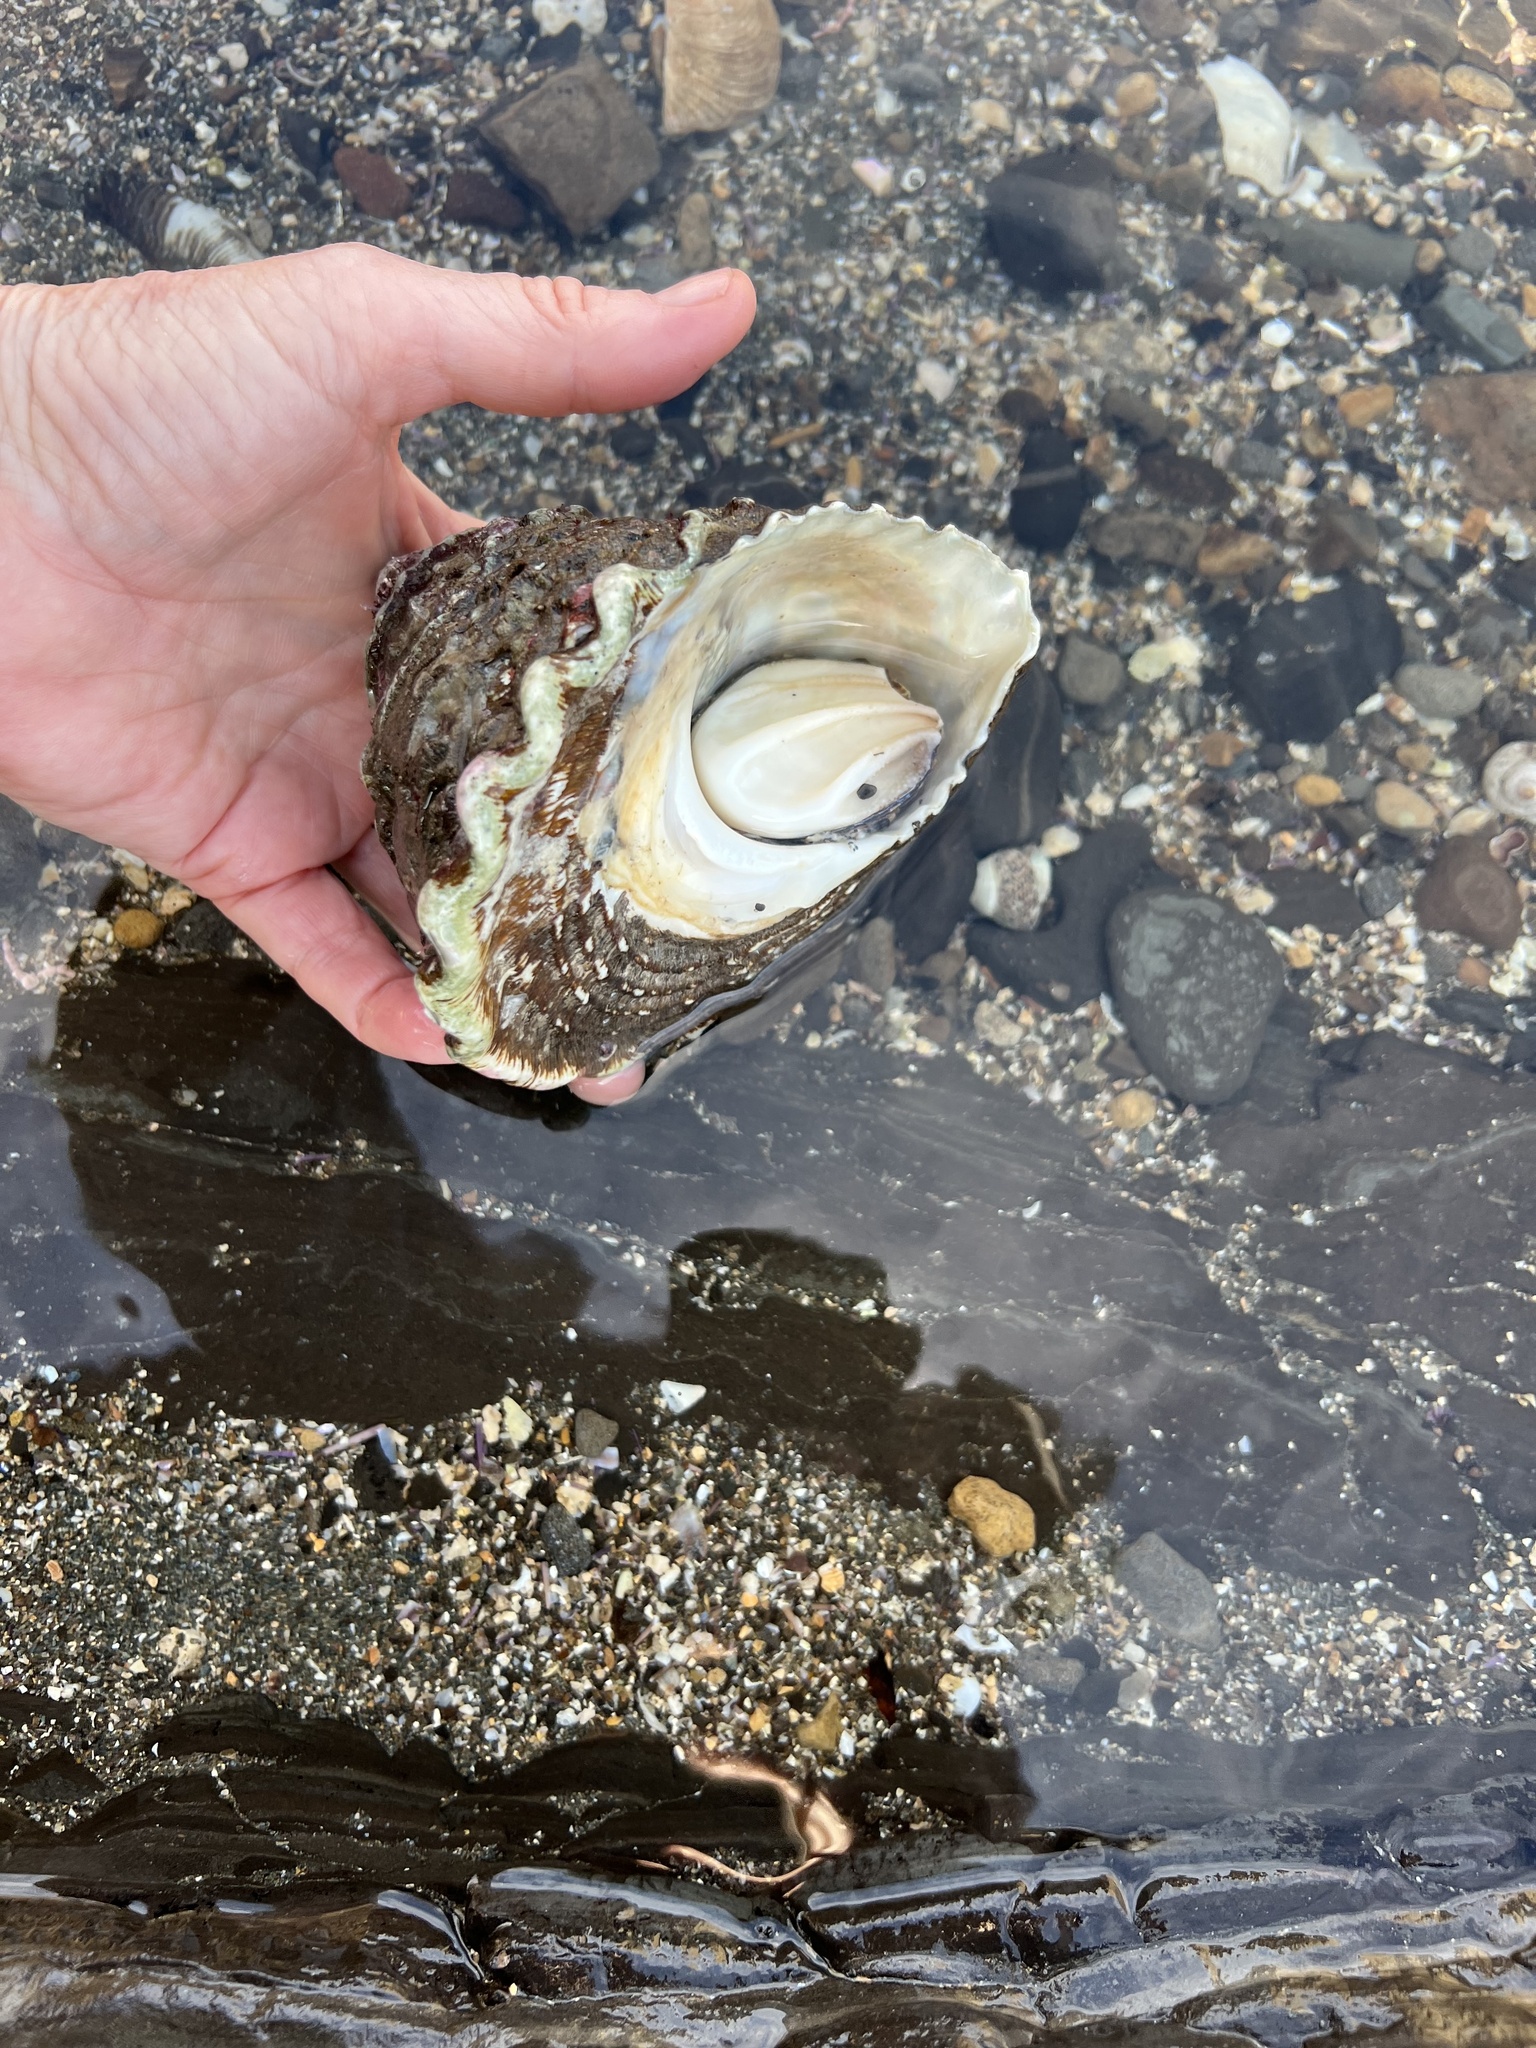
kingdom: Animalia
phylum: Mollusca
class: Gastropoda
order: Trochida
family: Turbinidae
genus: Megastraea
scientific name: Megastraea undosa
